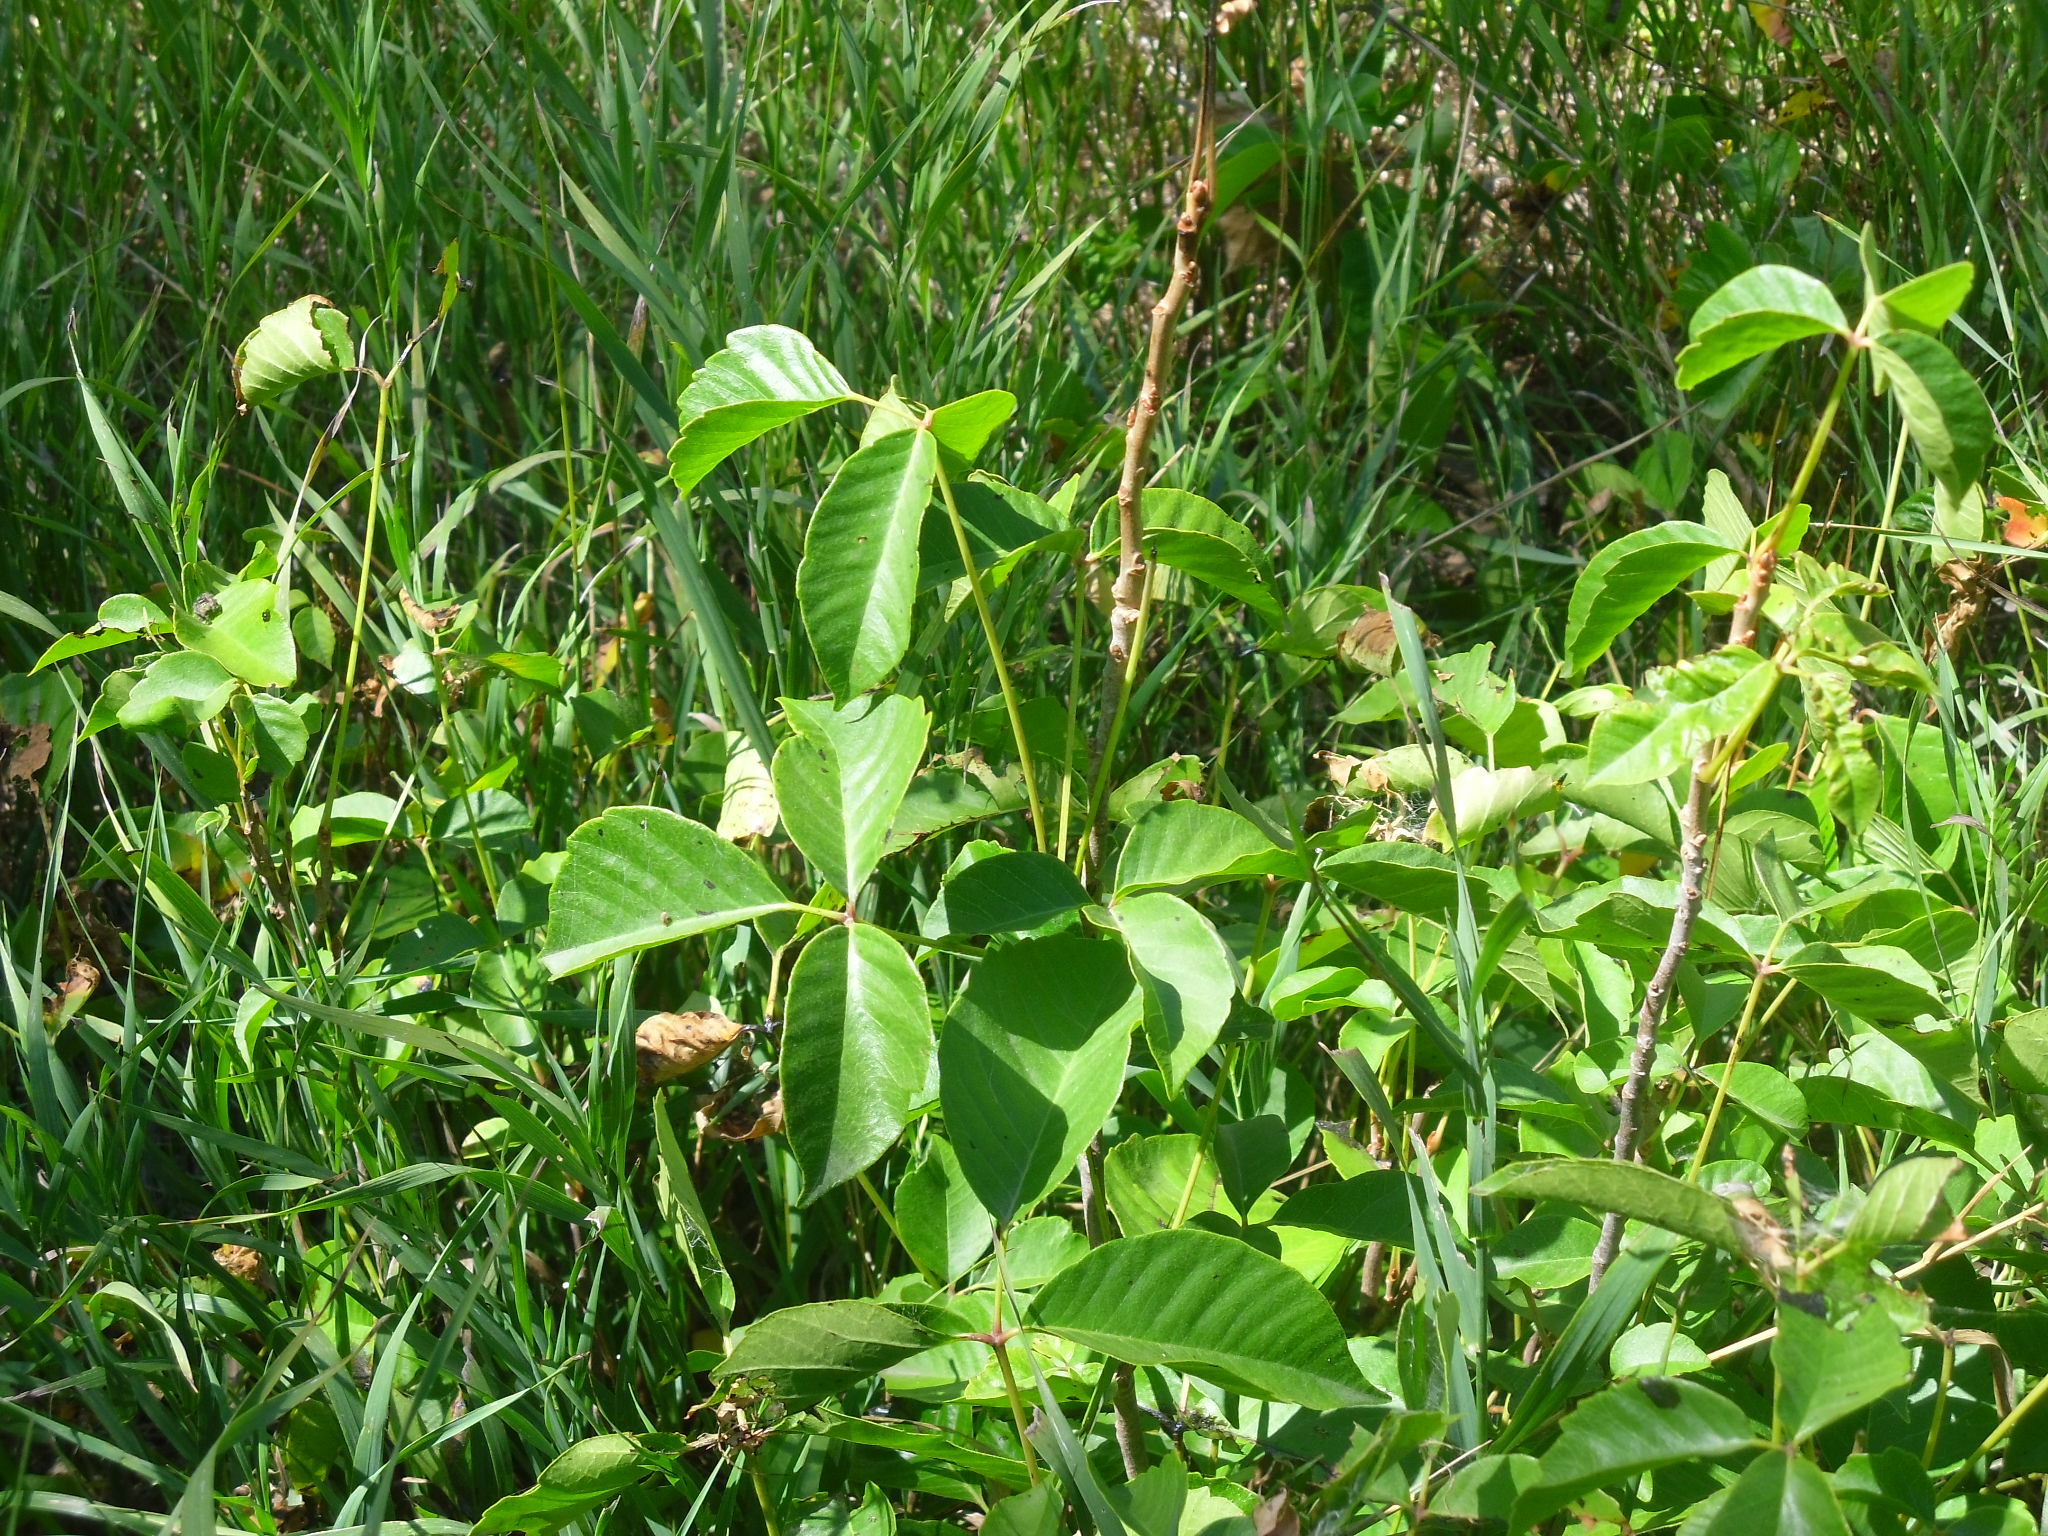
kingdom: Plantae
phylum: Tracheophyta
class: Magnoliopsida
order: Sapindales
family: Anacardiaceae
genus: Toxicodendron
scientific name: Toxicodendron rydbergii
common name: Rydberg's poison-ivy
